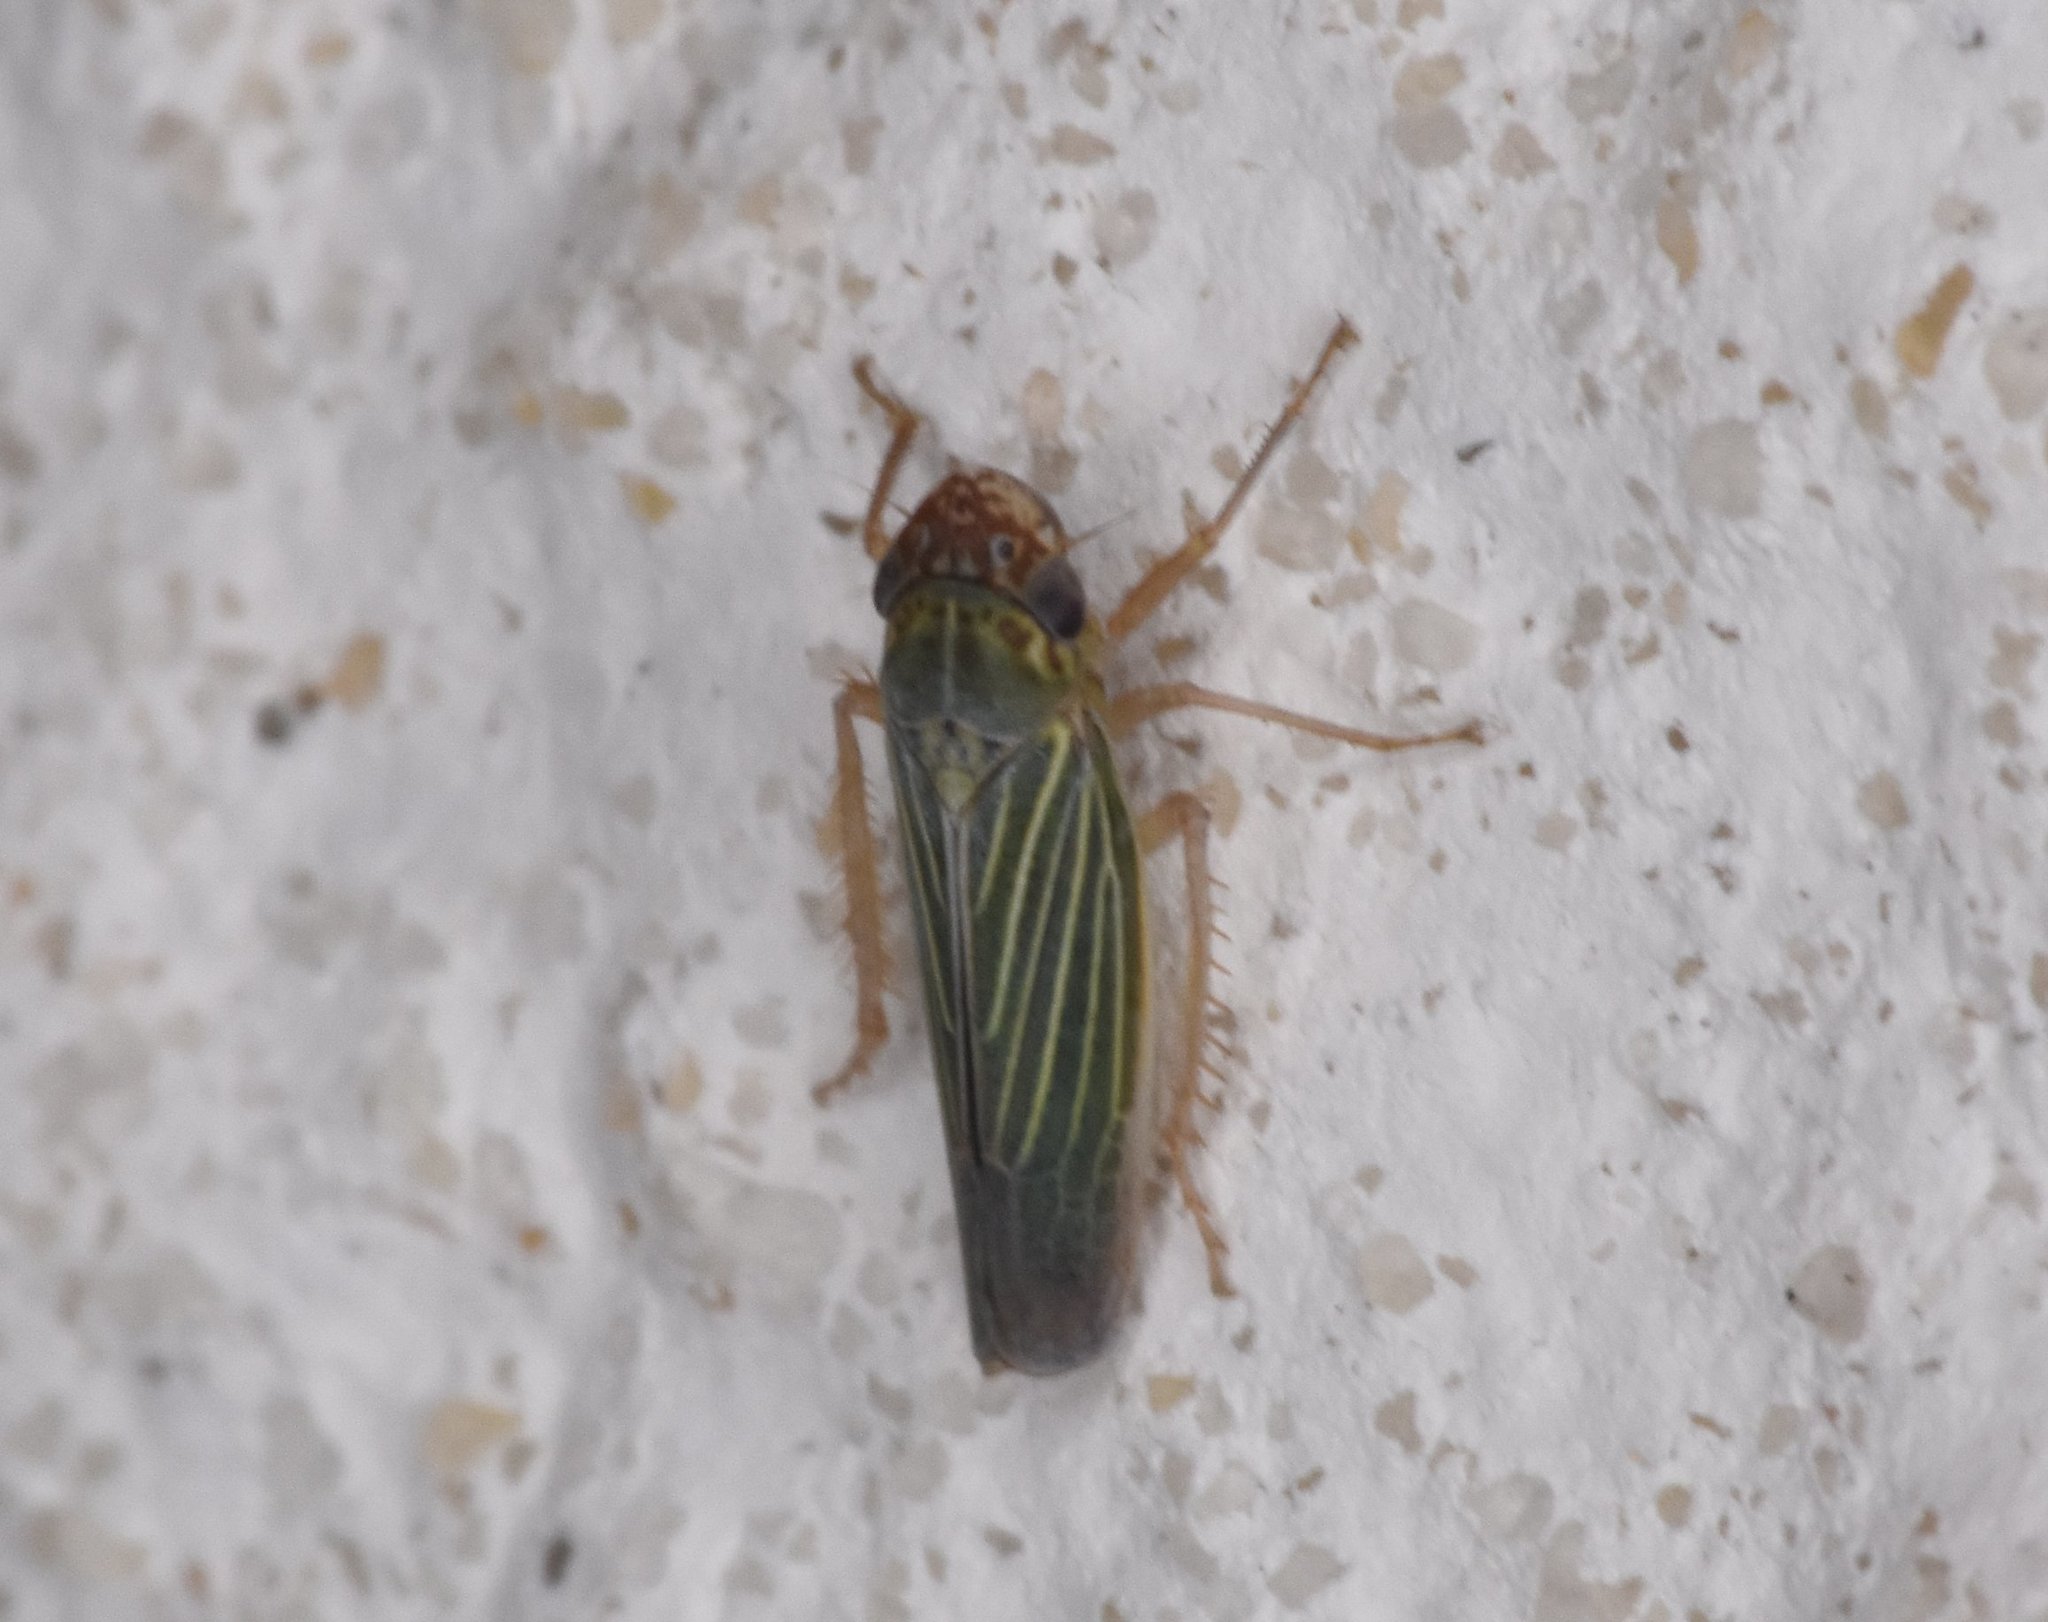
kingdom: Animalia
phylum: Arthropoda
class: Insecta
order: Hemiptera
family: Cicadellidae
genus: Xyphon
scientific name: Xyphon reticulatum
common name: Planthopper
